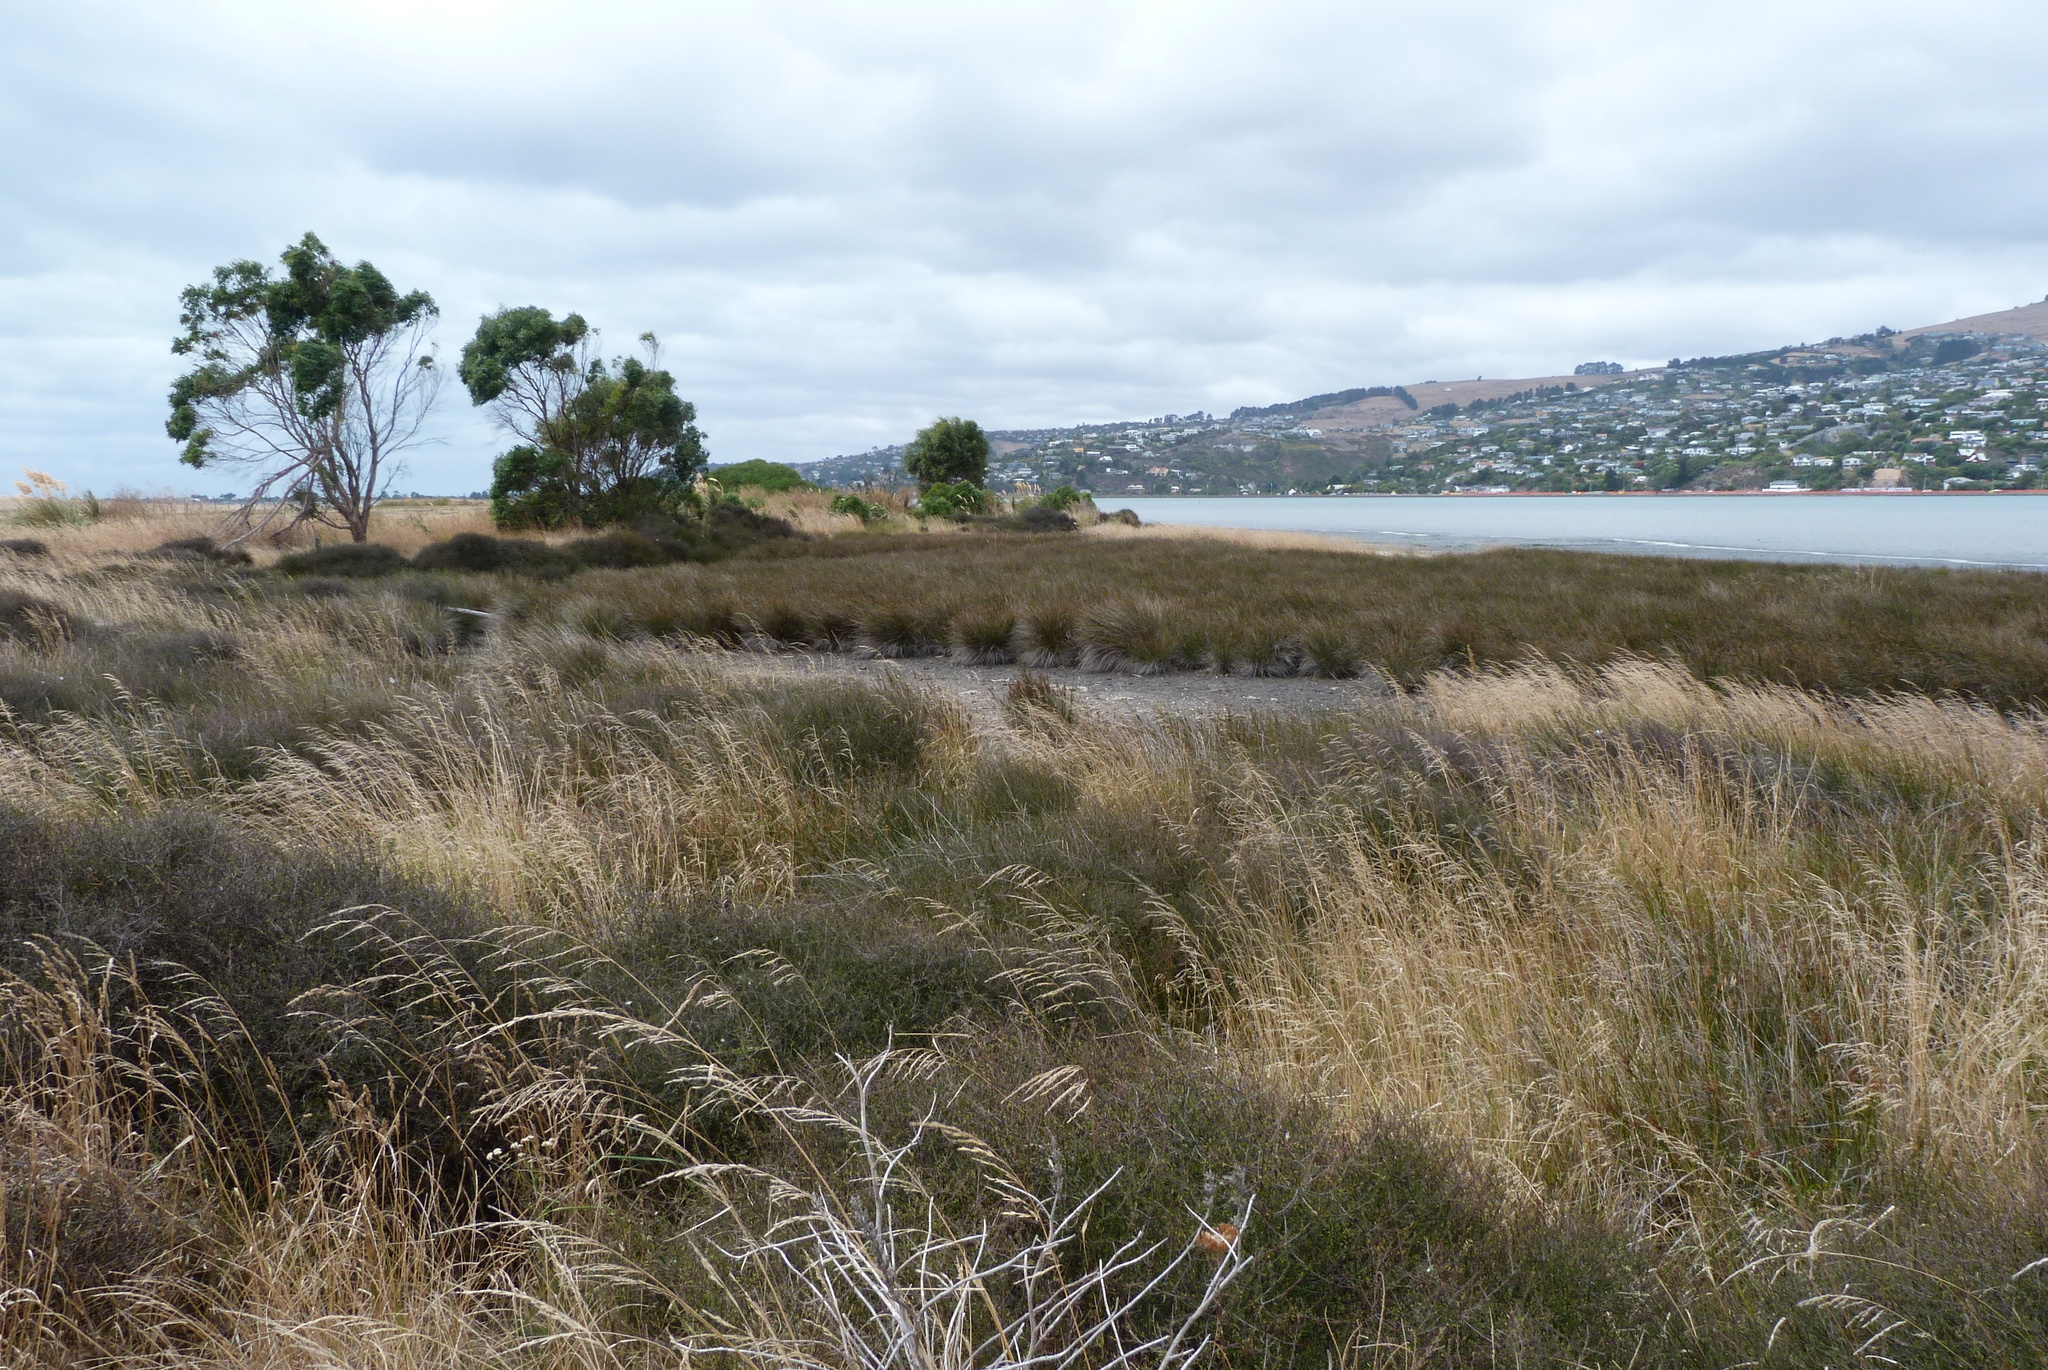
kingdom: Plantae
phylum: Tracheophyta
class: Liliopsida
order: Poales
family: Juncaceae
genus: Juncus
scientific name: Juncus kraussii
